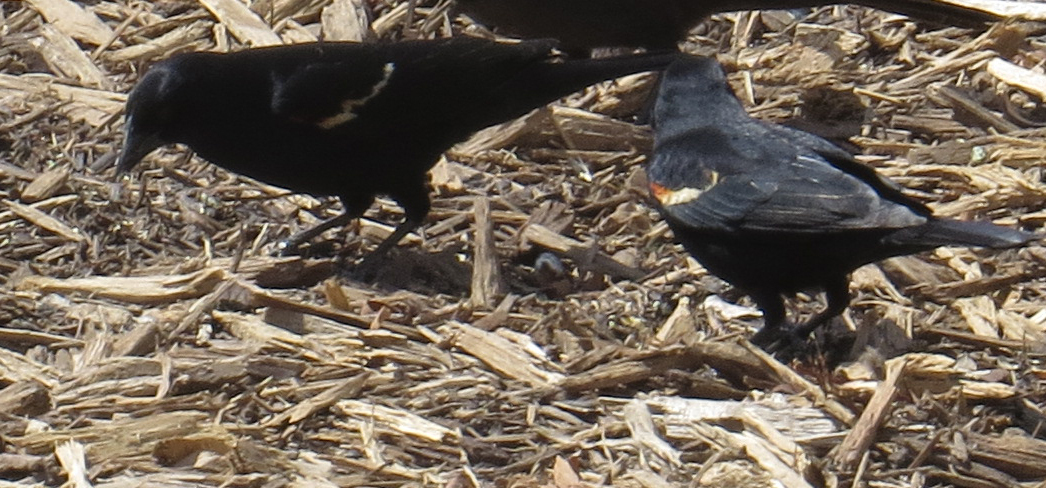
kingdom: Animalia
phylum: Chordata
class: Aves
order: Passeriformes
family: Icteridae
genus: Agelaius
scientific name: Agelaius phoeniceus
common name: Red-winged blackbird
